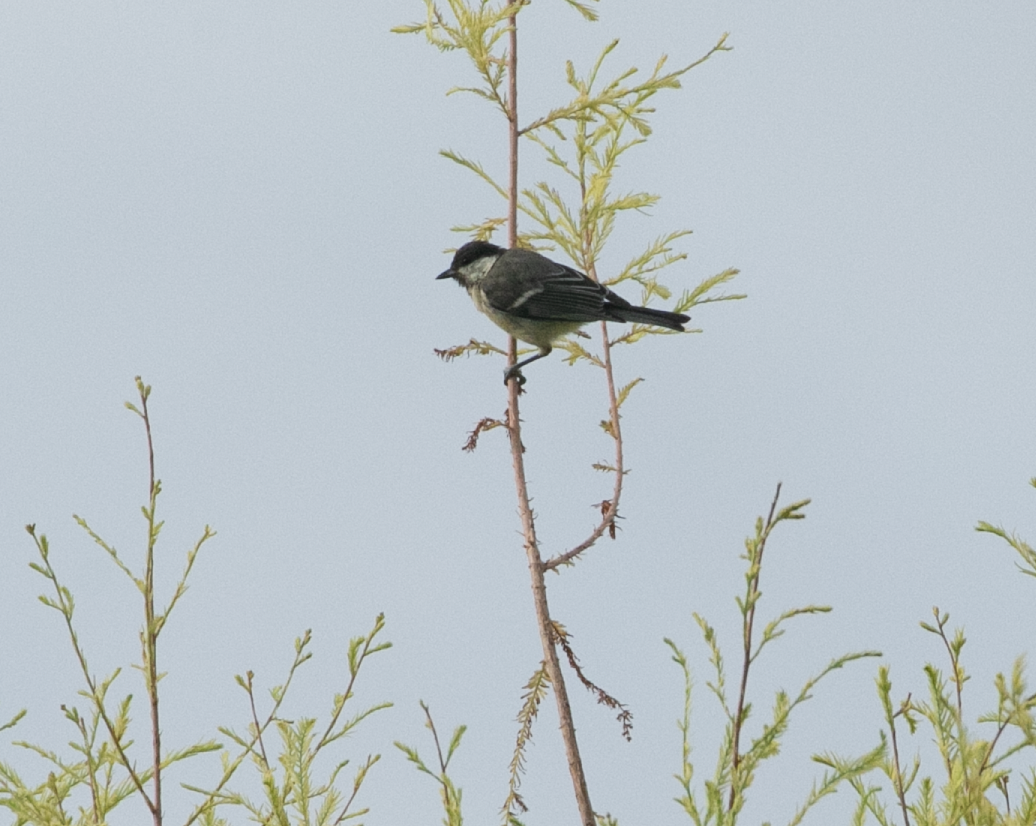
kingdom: Animalia
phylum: Chordata
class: Aves
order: Passeriformes
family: Paridae
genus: Parus
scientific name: Parus major
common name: Great tit
